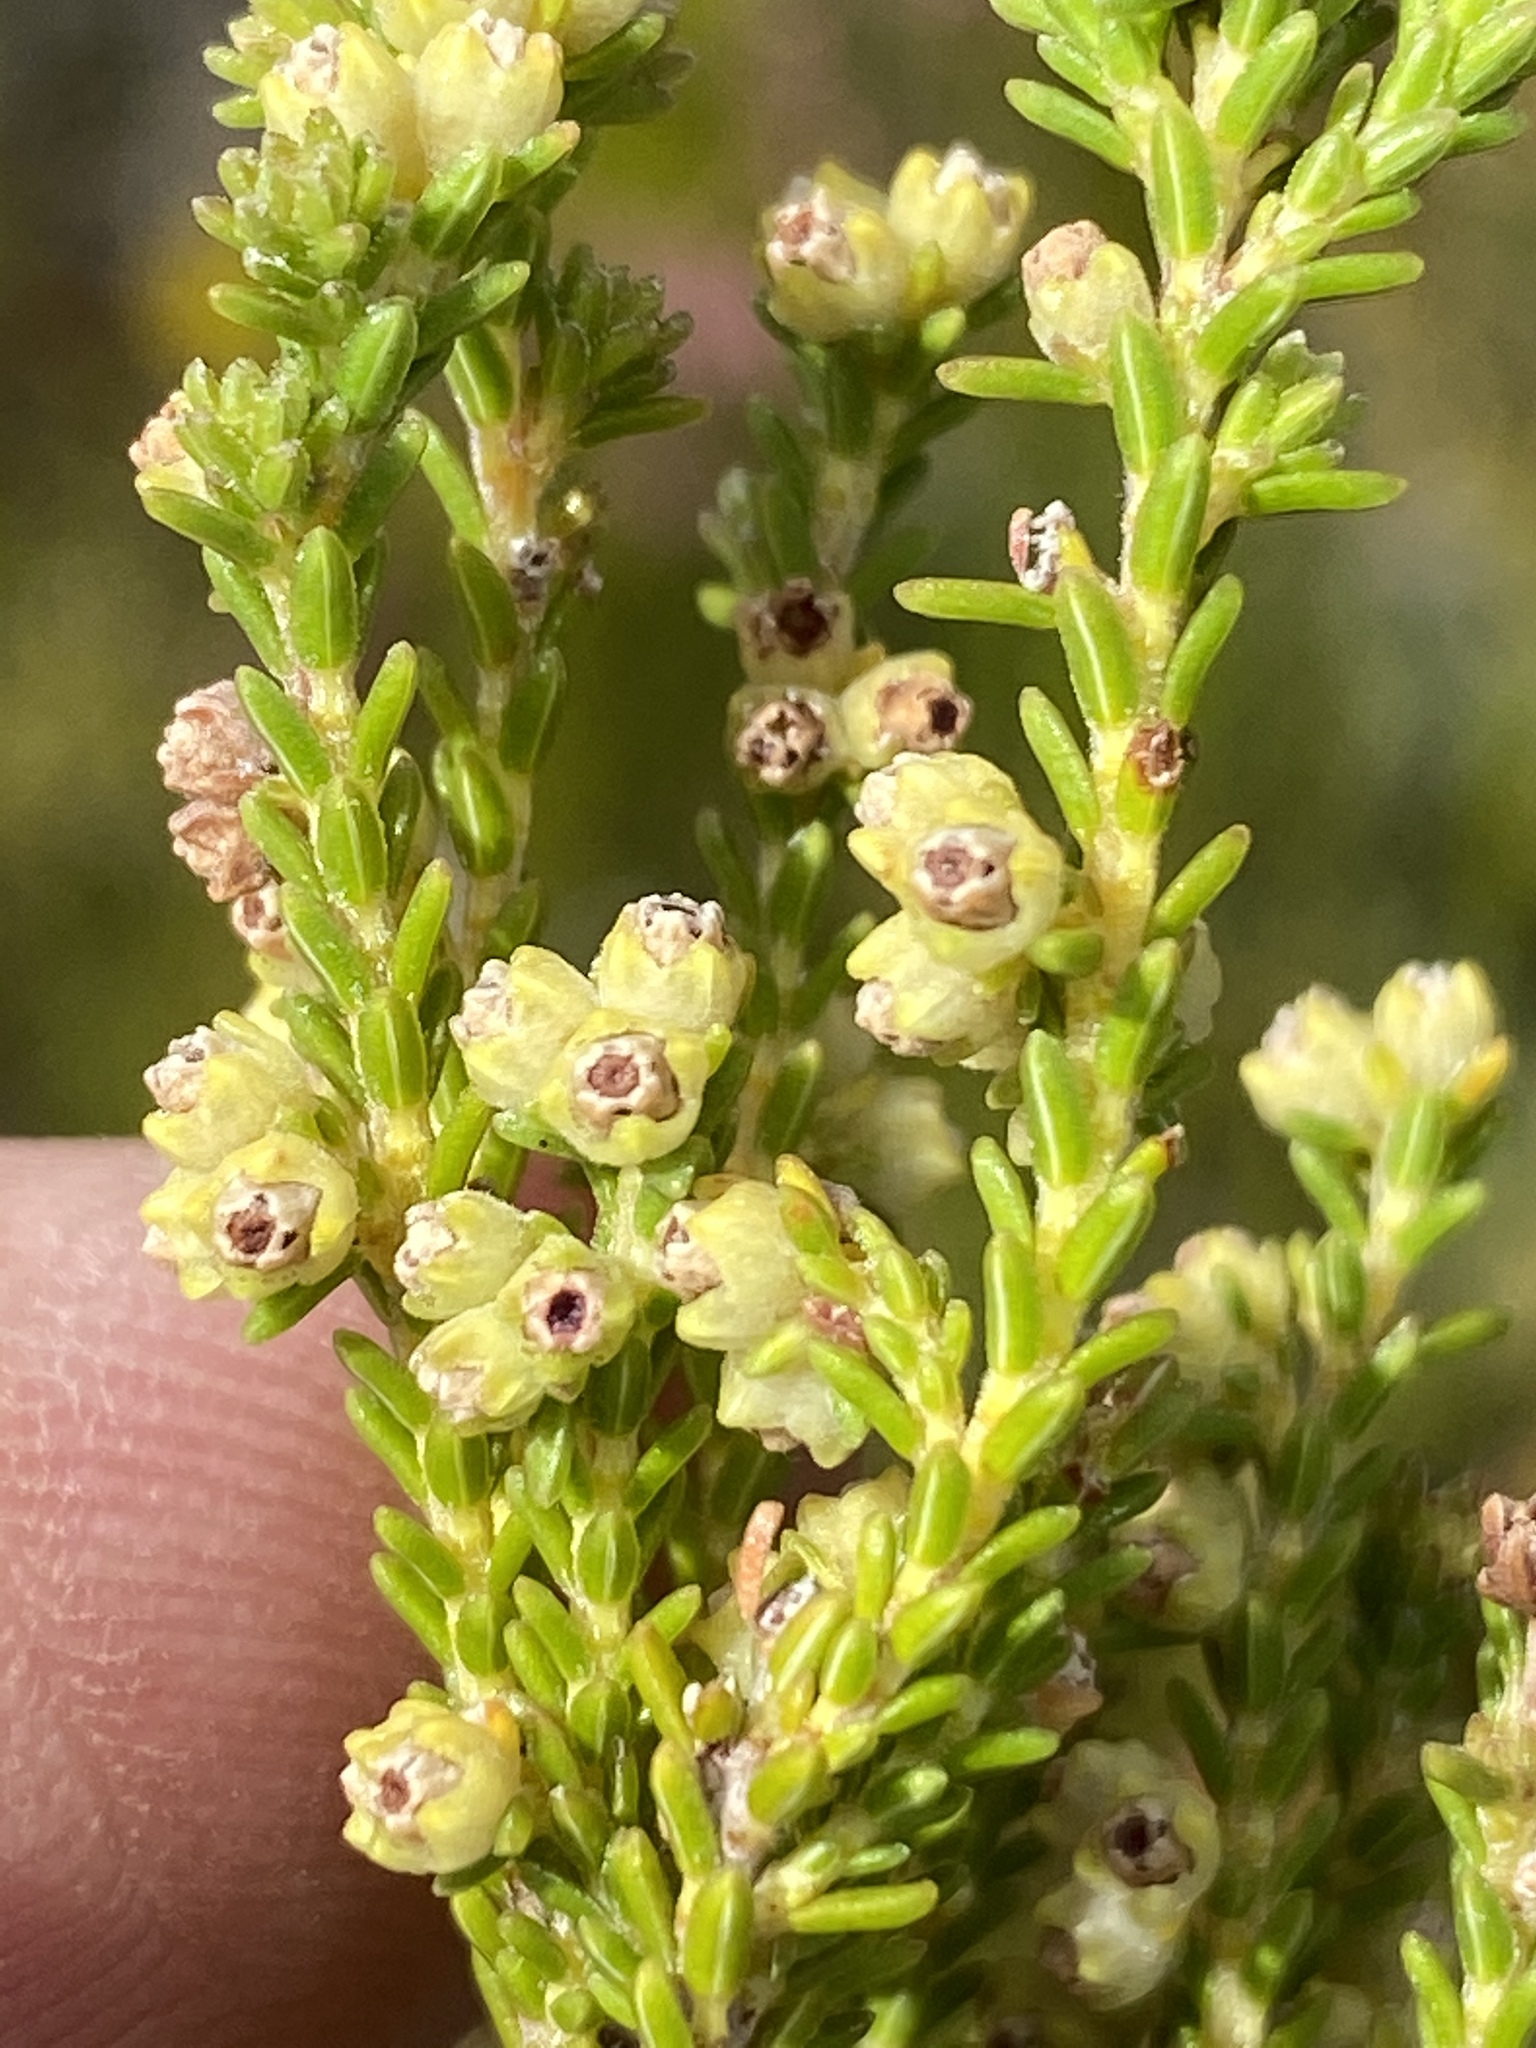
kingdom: Plantae
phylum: Tracheophyta
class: Magnoliopsida
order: Ericales
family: Ericaceae
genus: Erica
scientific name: Erica serrata
